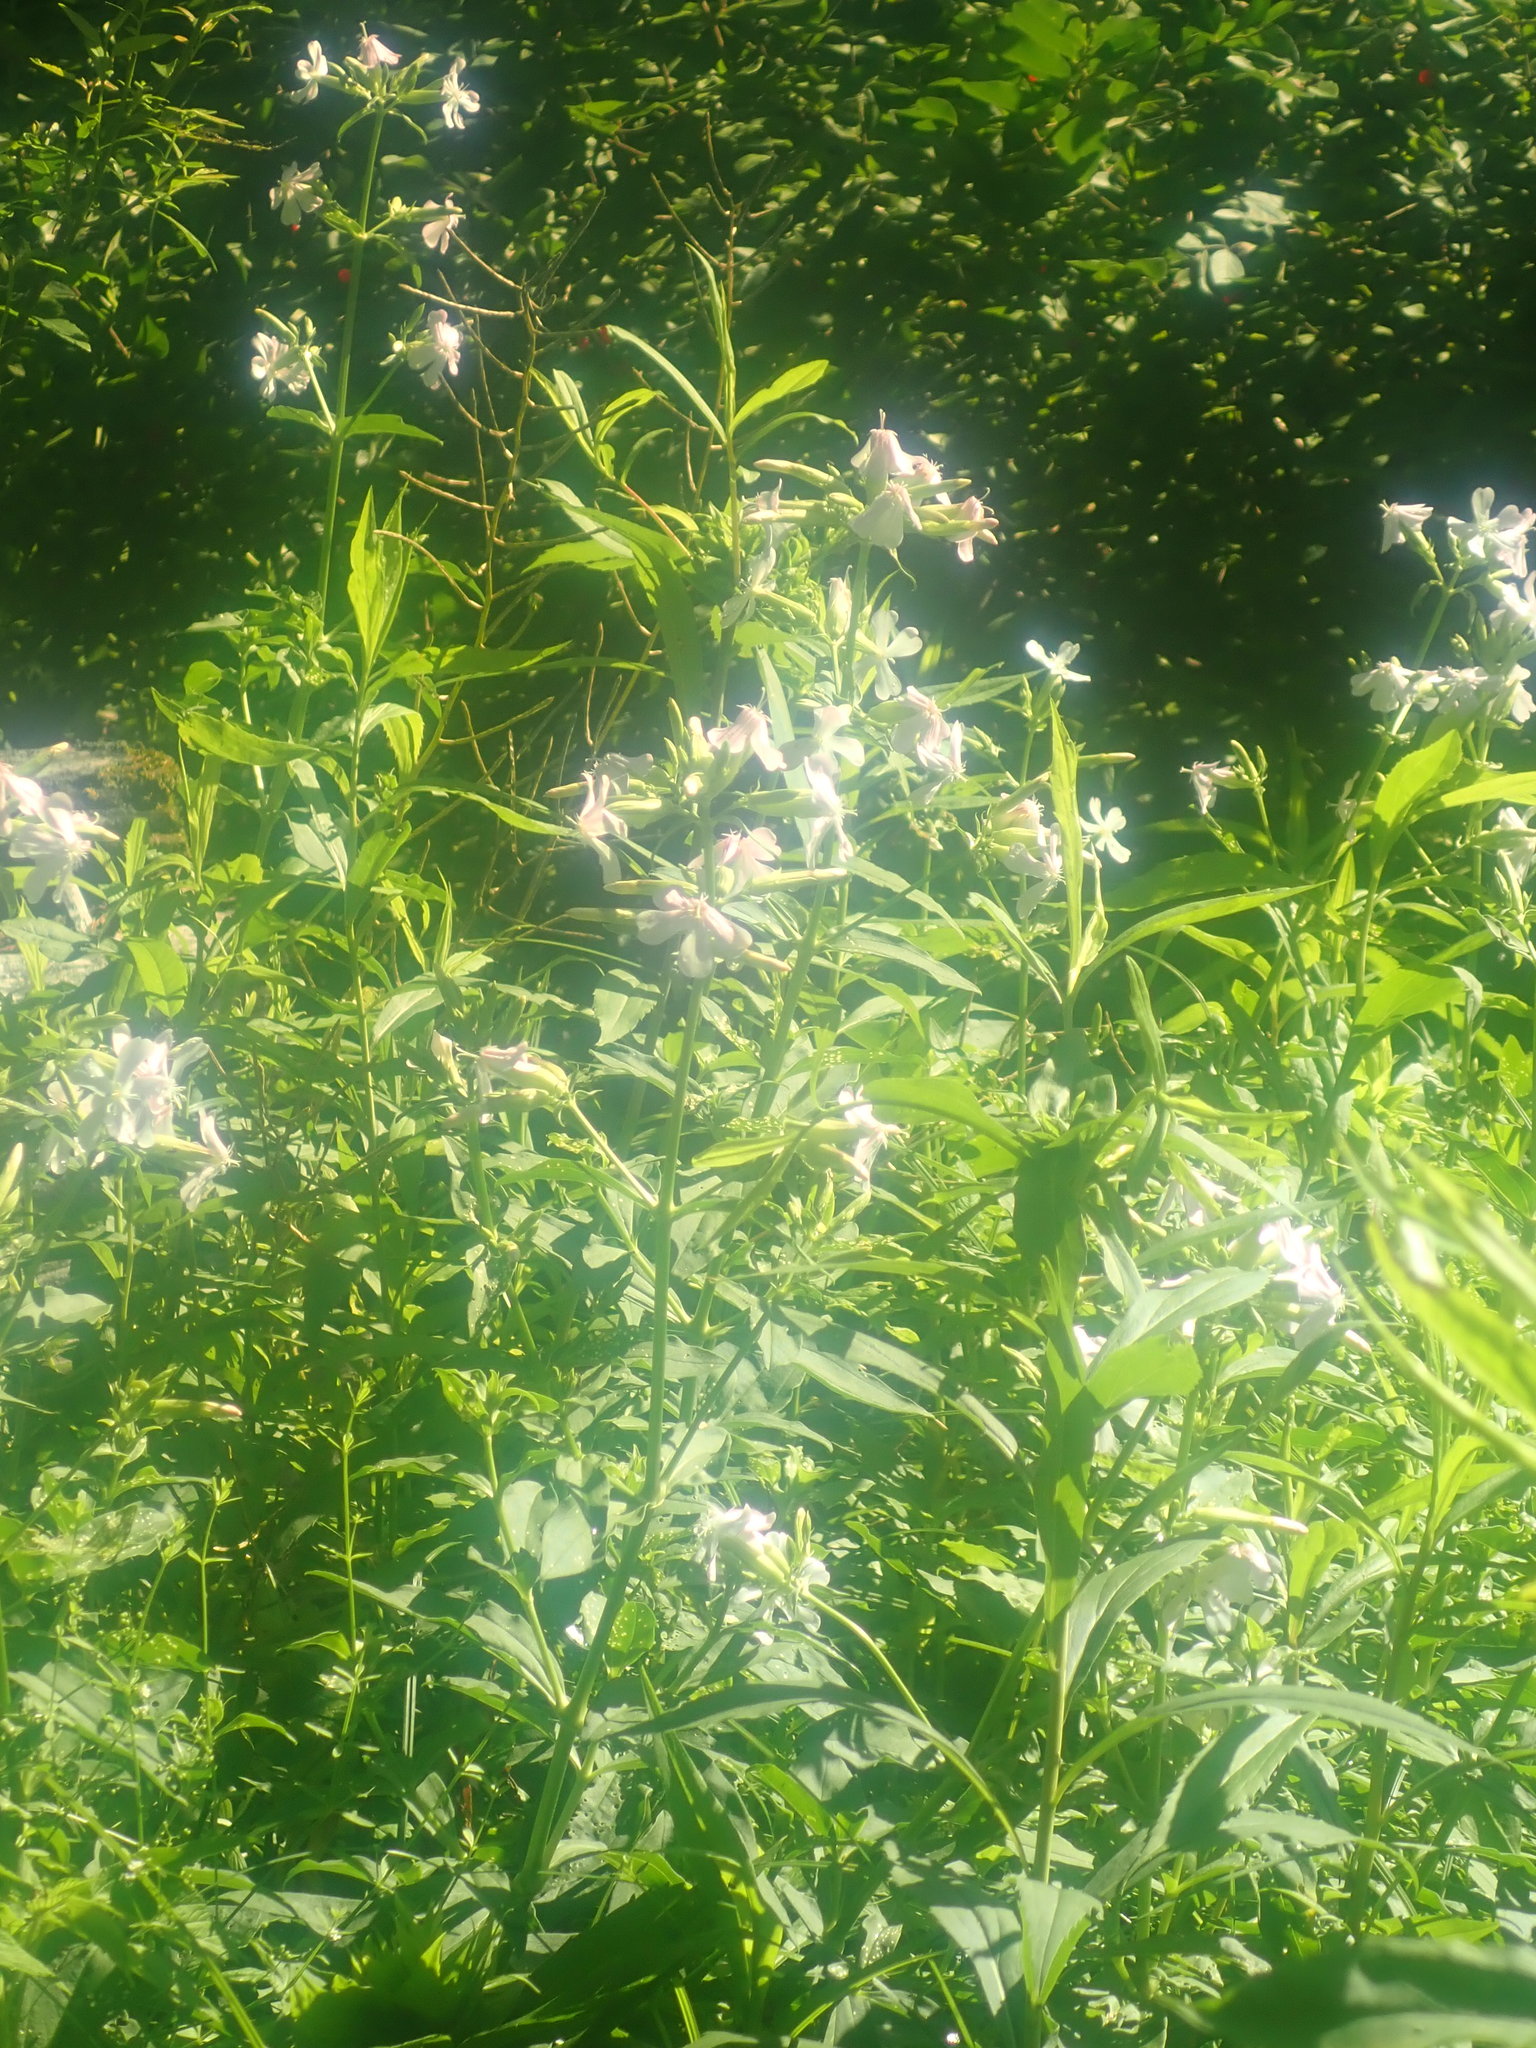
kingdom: Plantae
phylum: Tracheophyta
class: Magnoliopsida
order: Caryophyllales
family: Caryophyllaceae
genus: Saponaria
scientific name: Saponaria officinalis
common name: Soapwort
